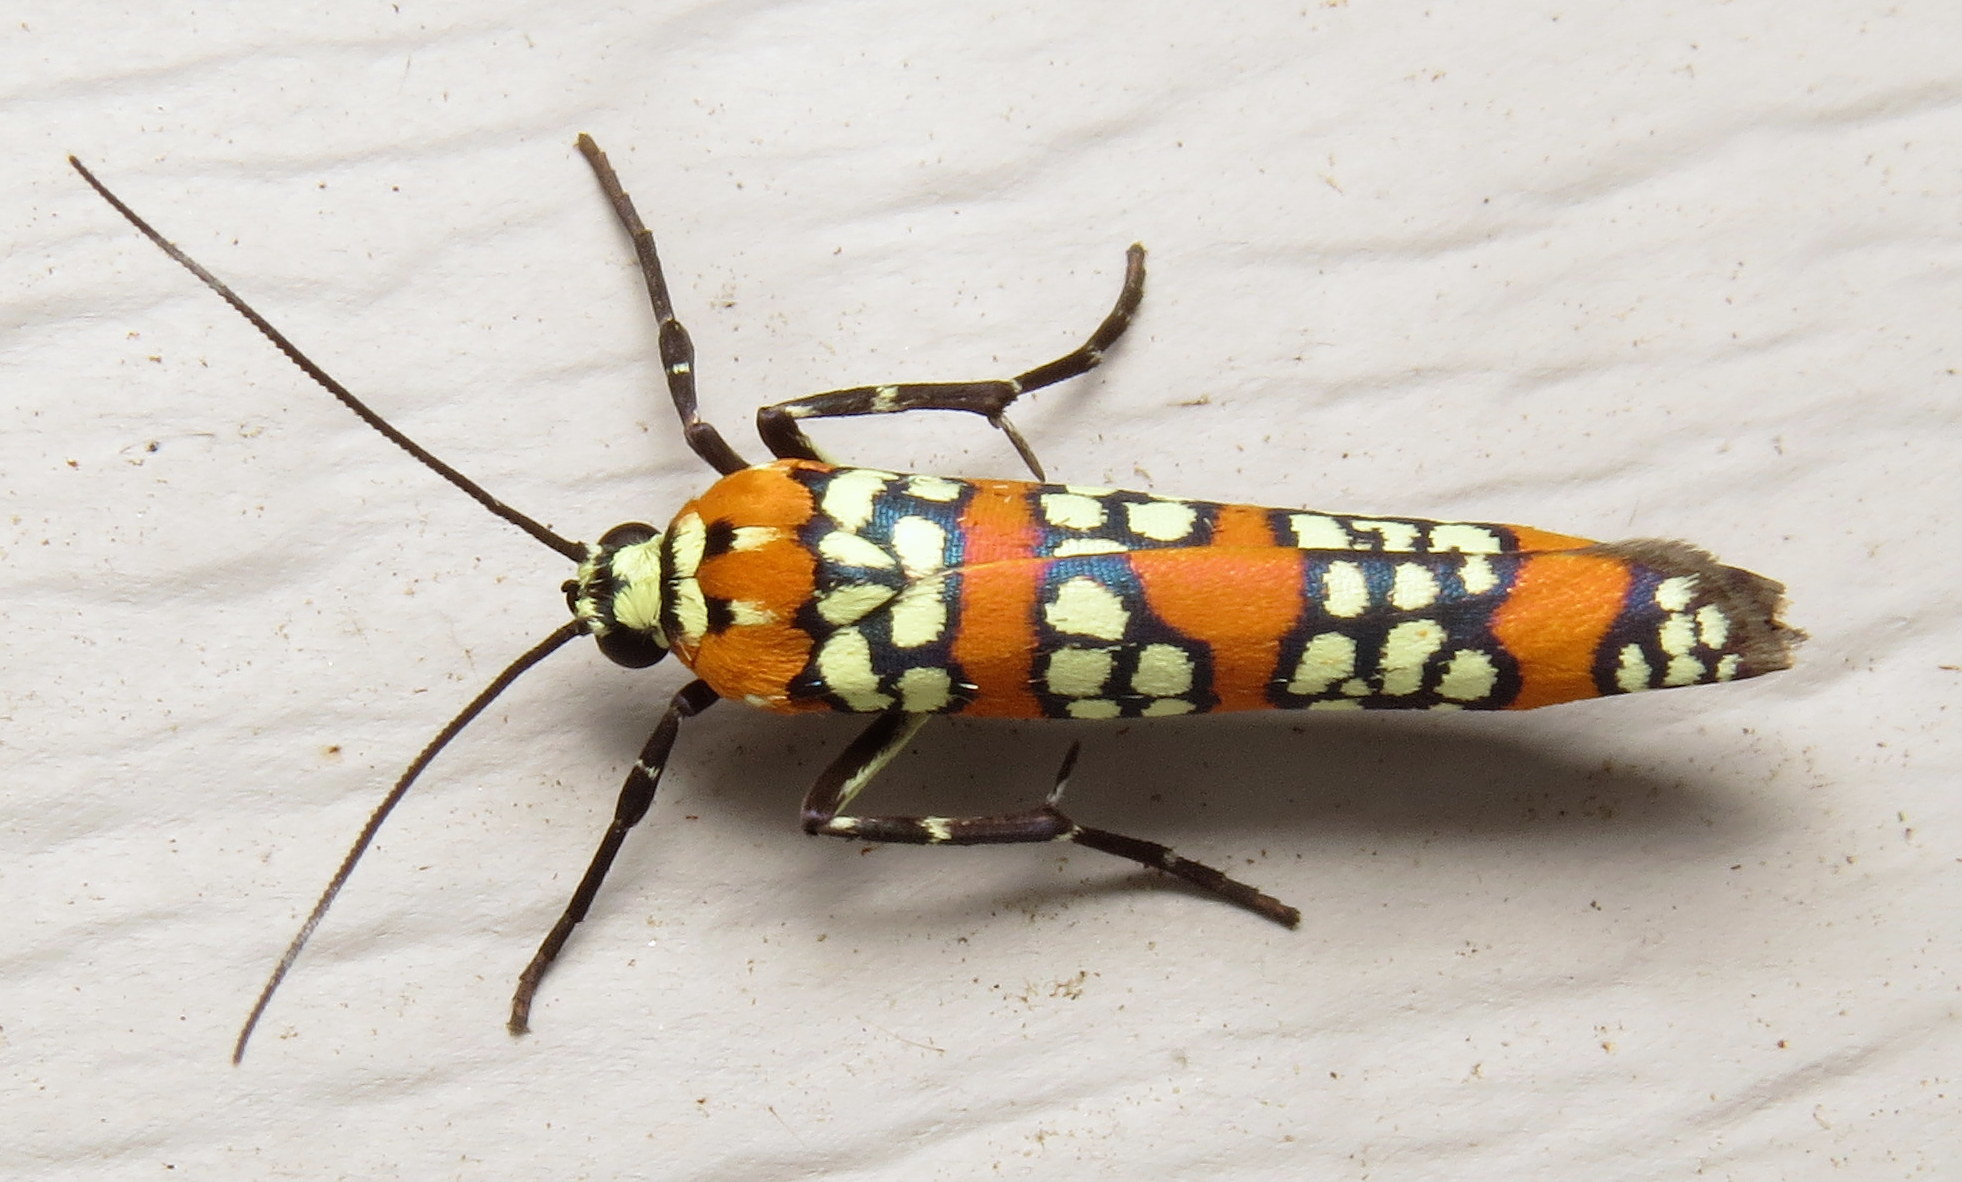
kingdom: Animalia
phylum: Arthropoda
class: Insecta
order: Lepidoptera
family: Attevidae
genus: Atteva
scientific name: Atteva punctella
